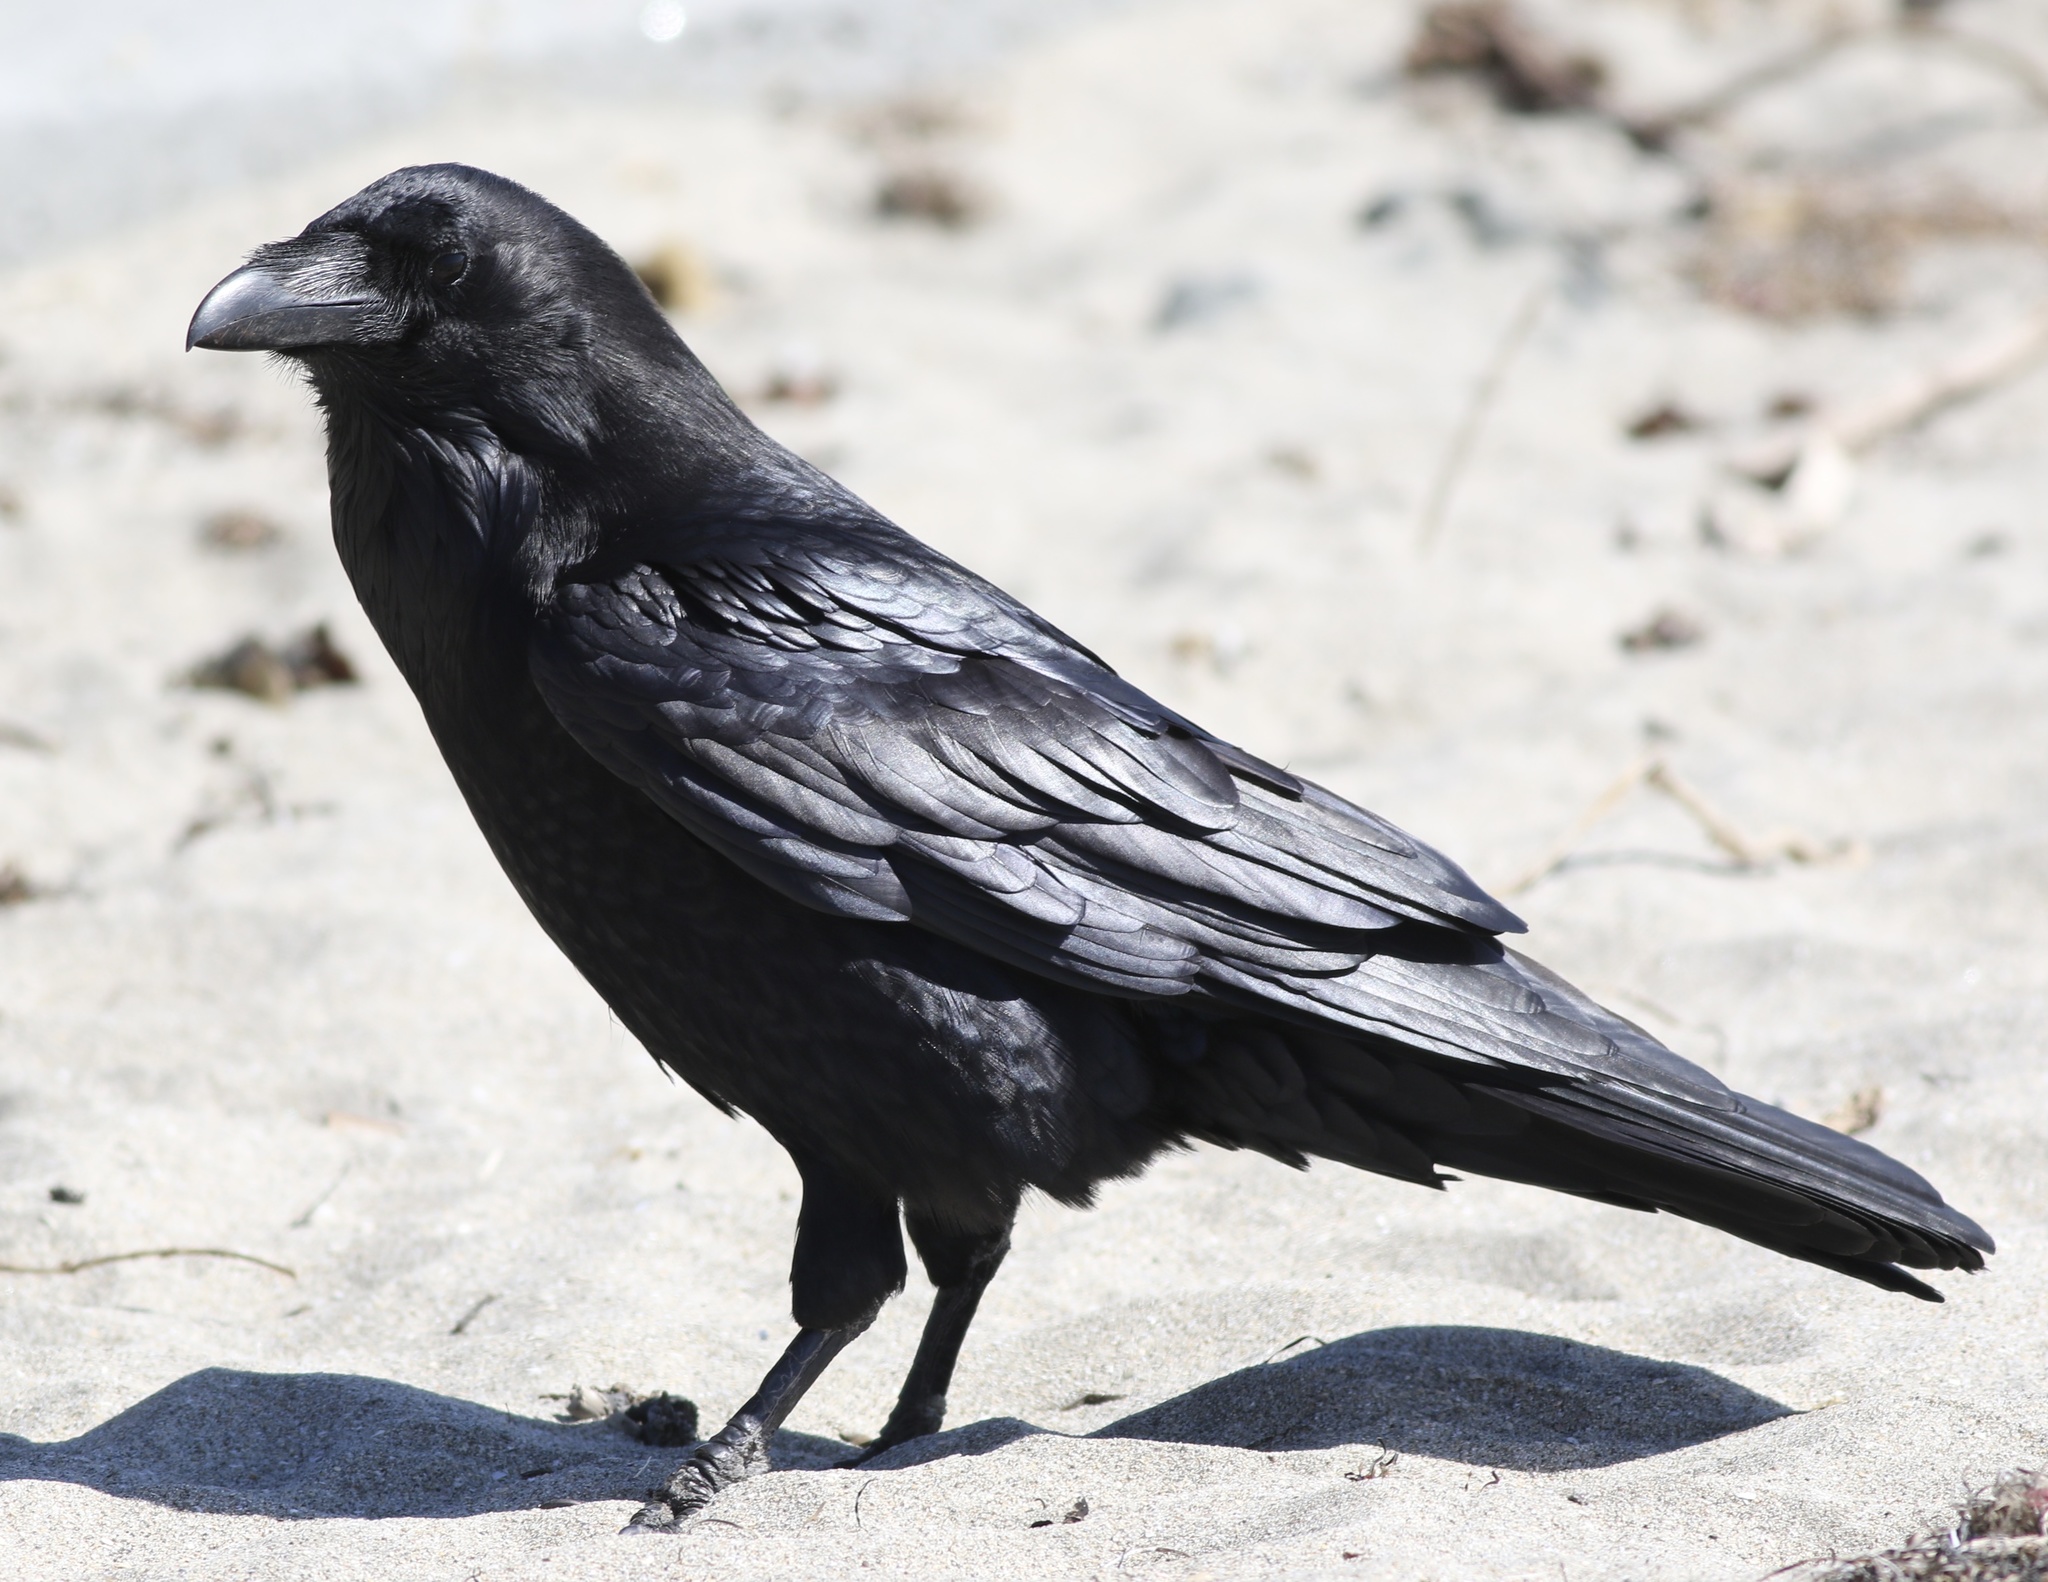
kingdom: Animalia
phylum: Chordata
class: Aves
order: Passeriformes
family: Corvidae
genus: Corvus
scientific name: Corvus corax
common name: Common raven
